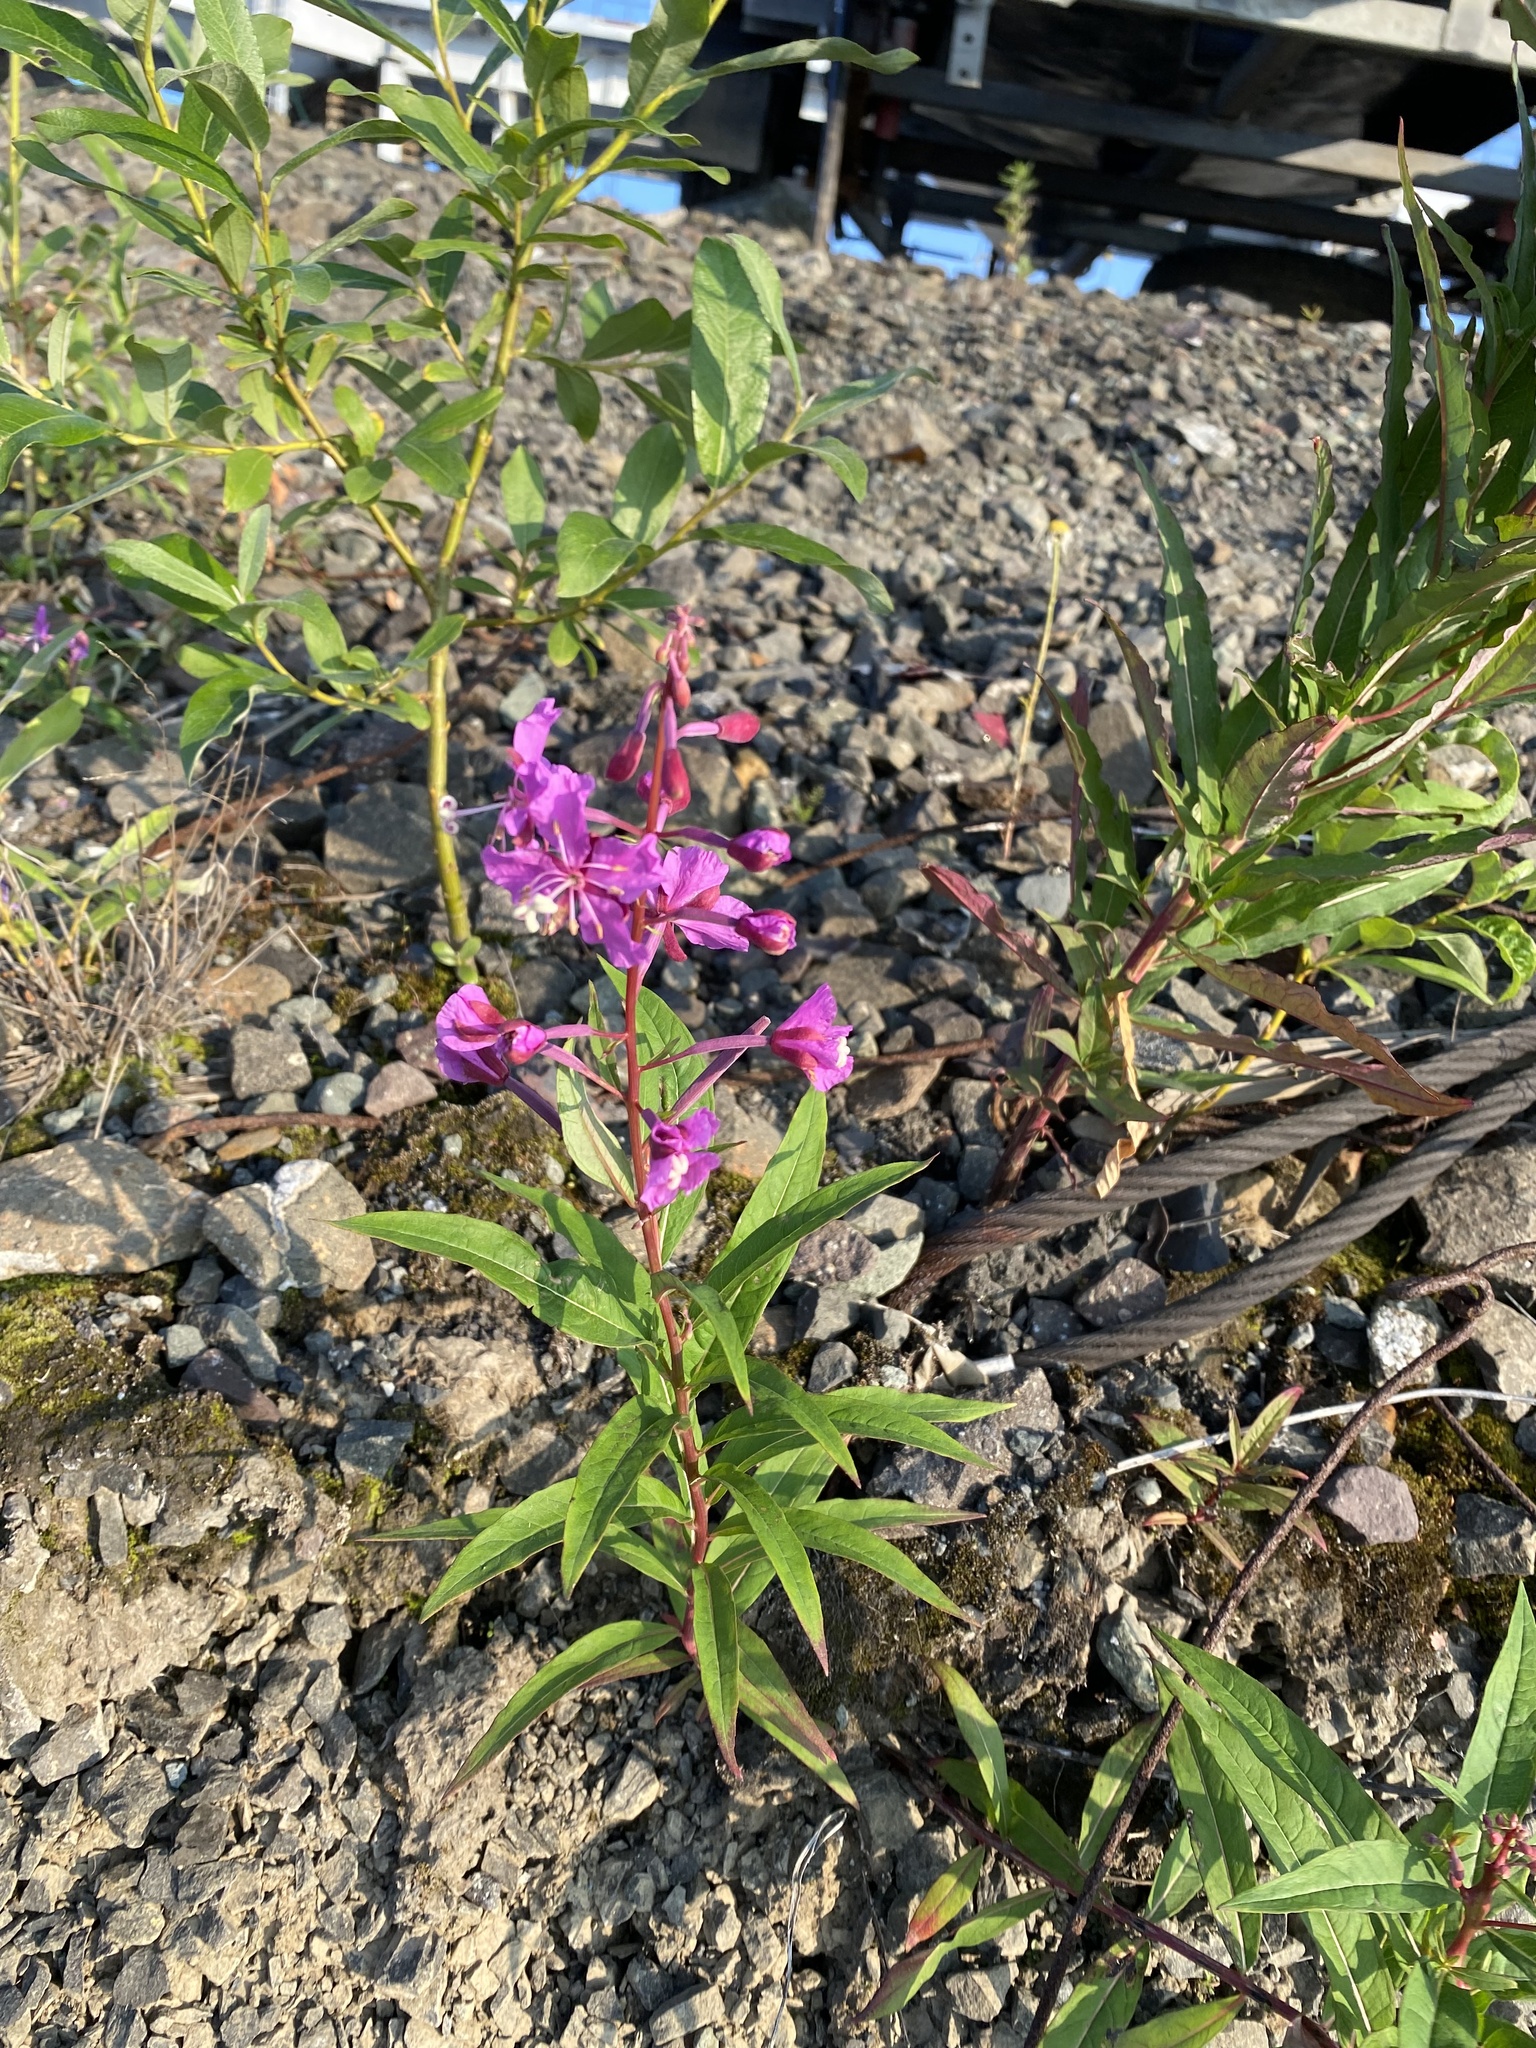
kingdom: Plantae
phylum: Tracheophyta
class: Magnoliopsida
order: Myrtales
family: Onagraceae
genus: Chamaenerion
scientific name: Chamaenerion angustifolium
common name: Fireweed
